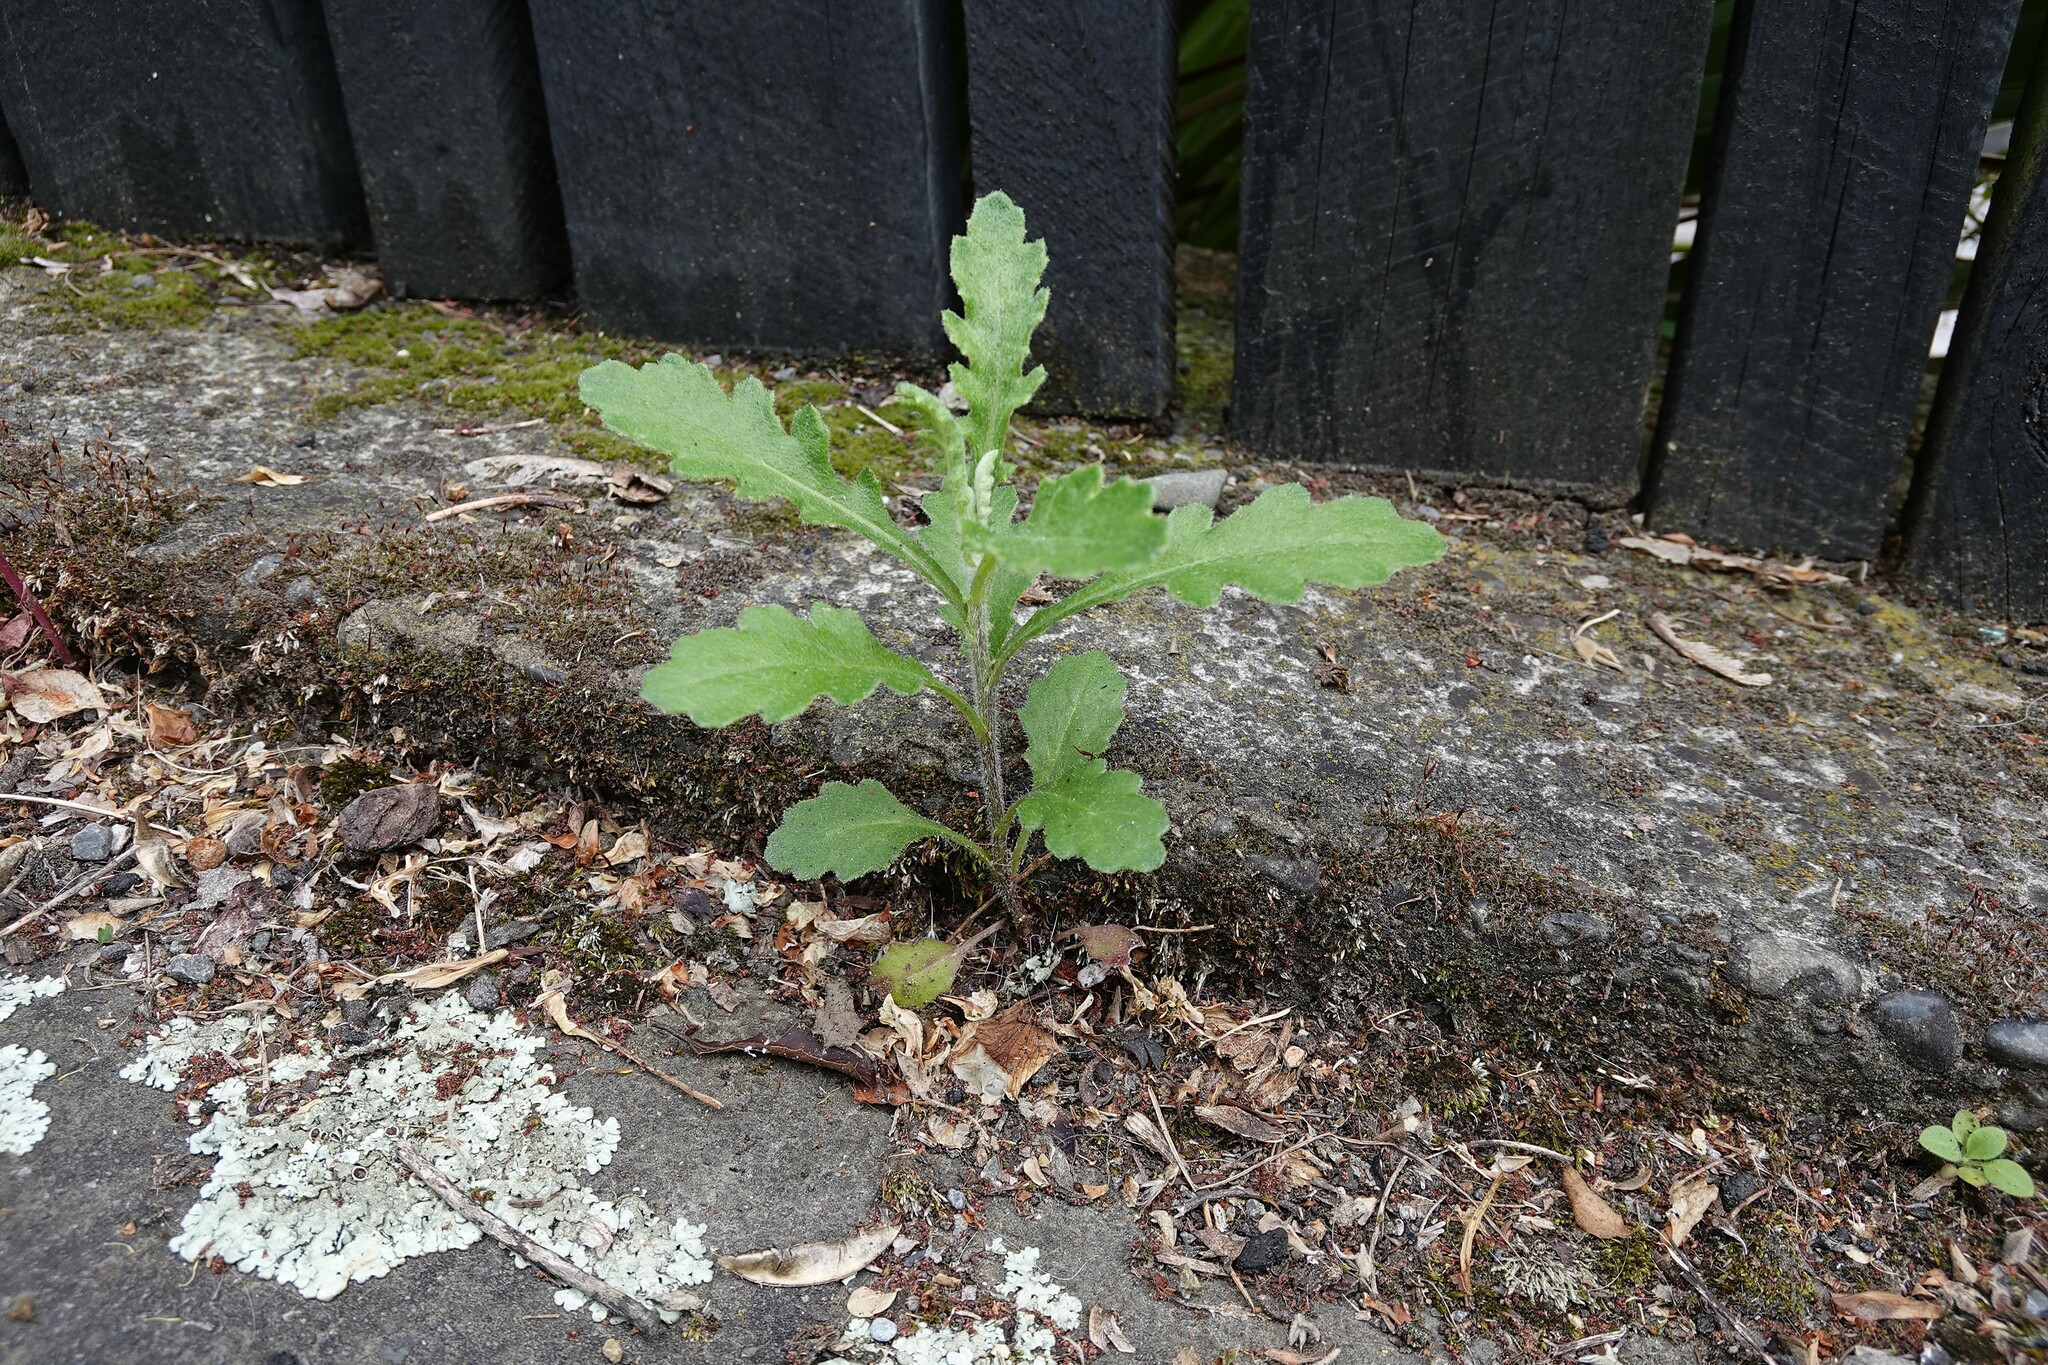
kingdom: Plantae
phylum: Tracheophyta
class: Magnoliopsida
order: Asterales
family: Asteraceae
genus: Senecio
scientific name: Senecio glomeratus
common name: Cutleaf burnweed
